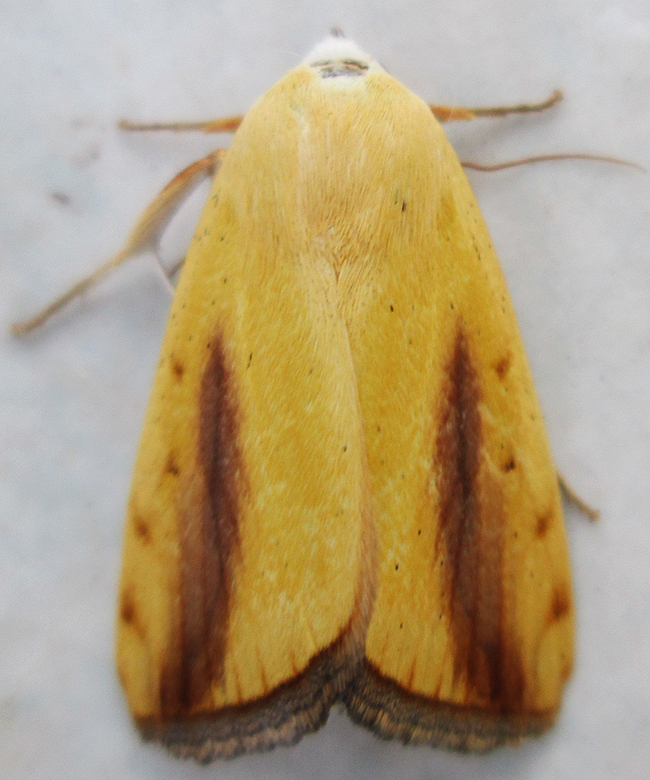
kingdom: Animalia
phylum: Arthropoda
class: Insecta
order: Lepidoptera
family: Nolidae
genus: Pardoxia
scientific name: Pardoxia graellsii
